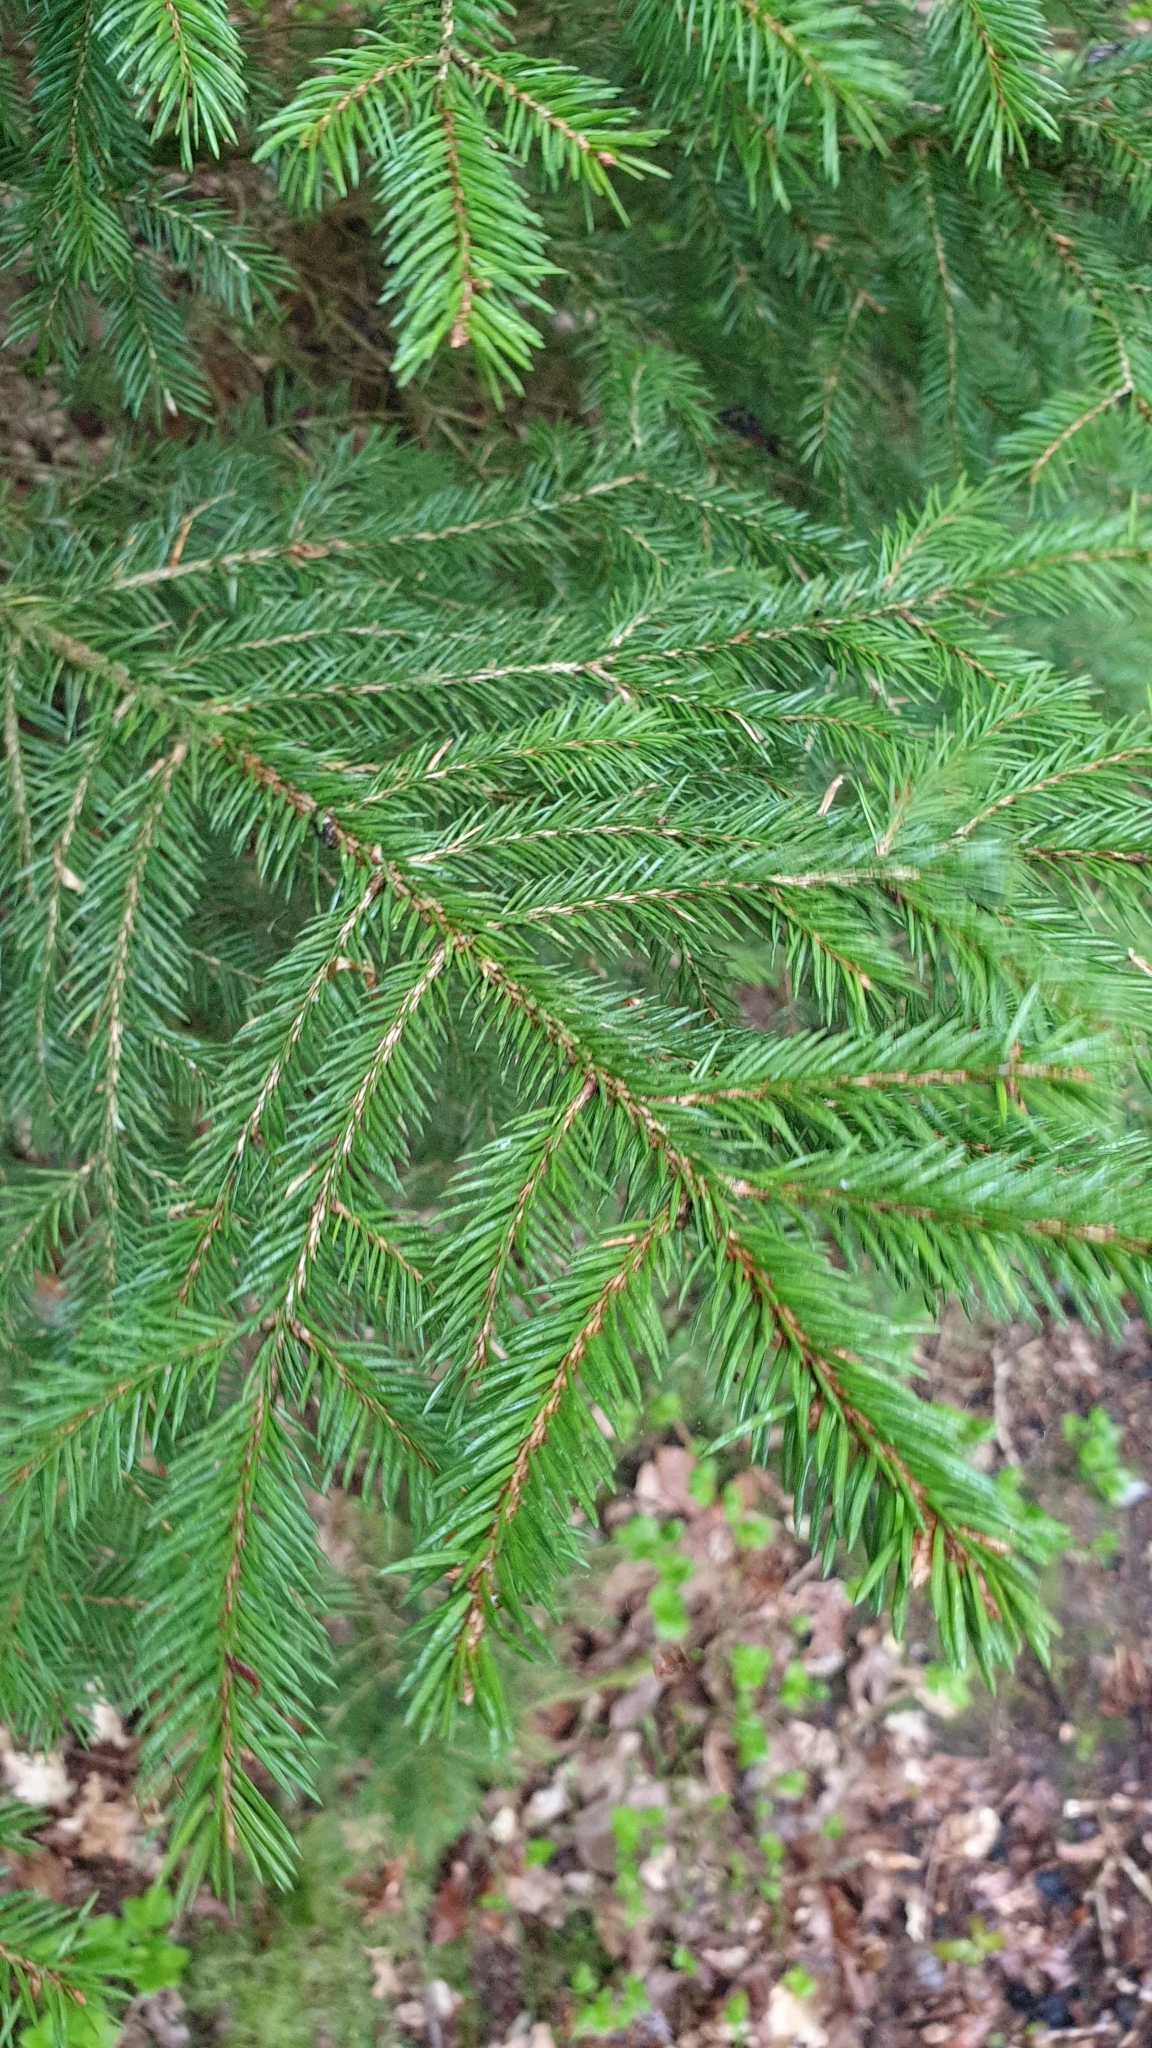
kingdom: Plantae
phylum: Tracheophyta
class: Pinopsida
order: Pinales
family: Pinaceae
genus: Picea
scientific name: Picea abies
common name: Norway spruce
